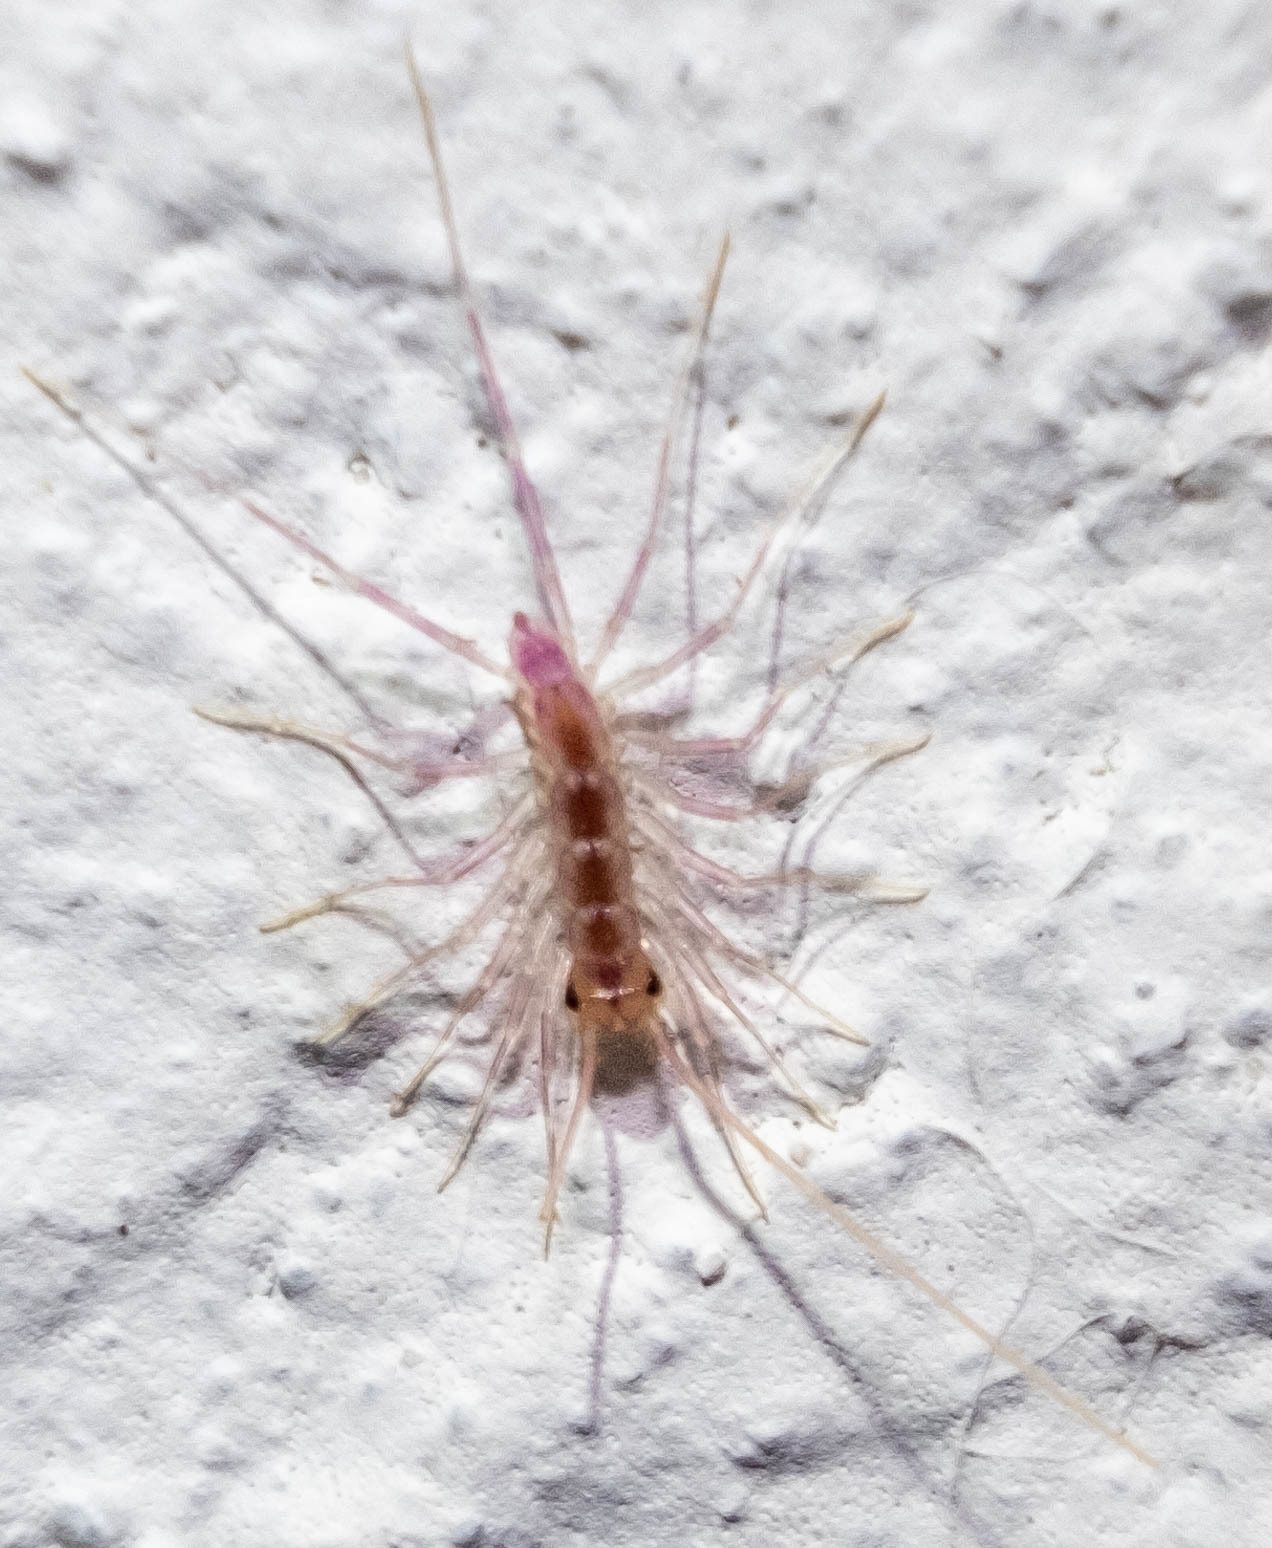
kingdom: Animalia
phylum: Arthropoda
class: Chilopoda
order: Scutigeromorpha
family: Scutigeridae
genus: Scutigera
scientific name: Scutigera coleoptrata
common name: House centipede
